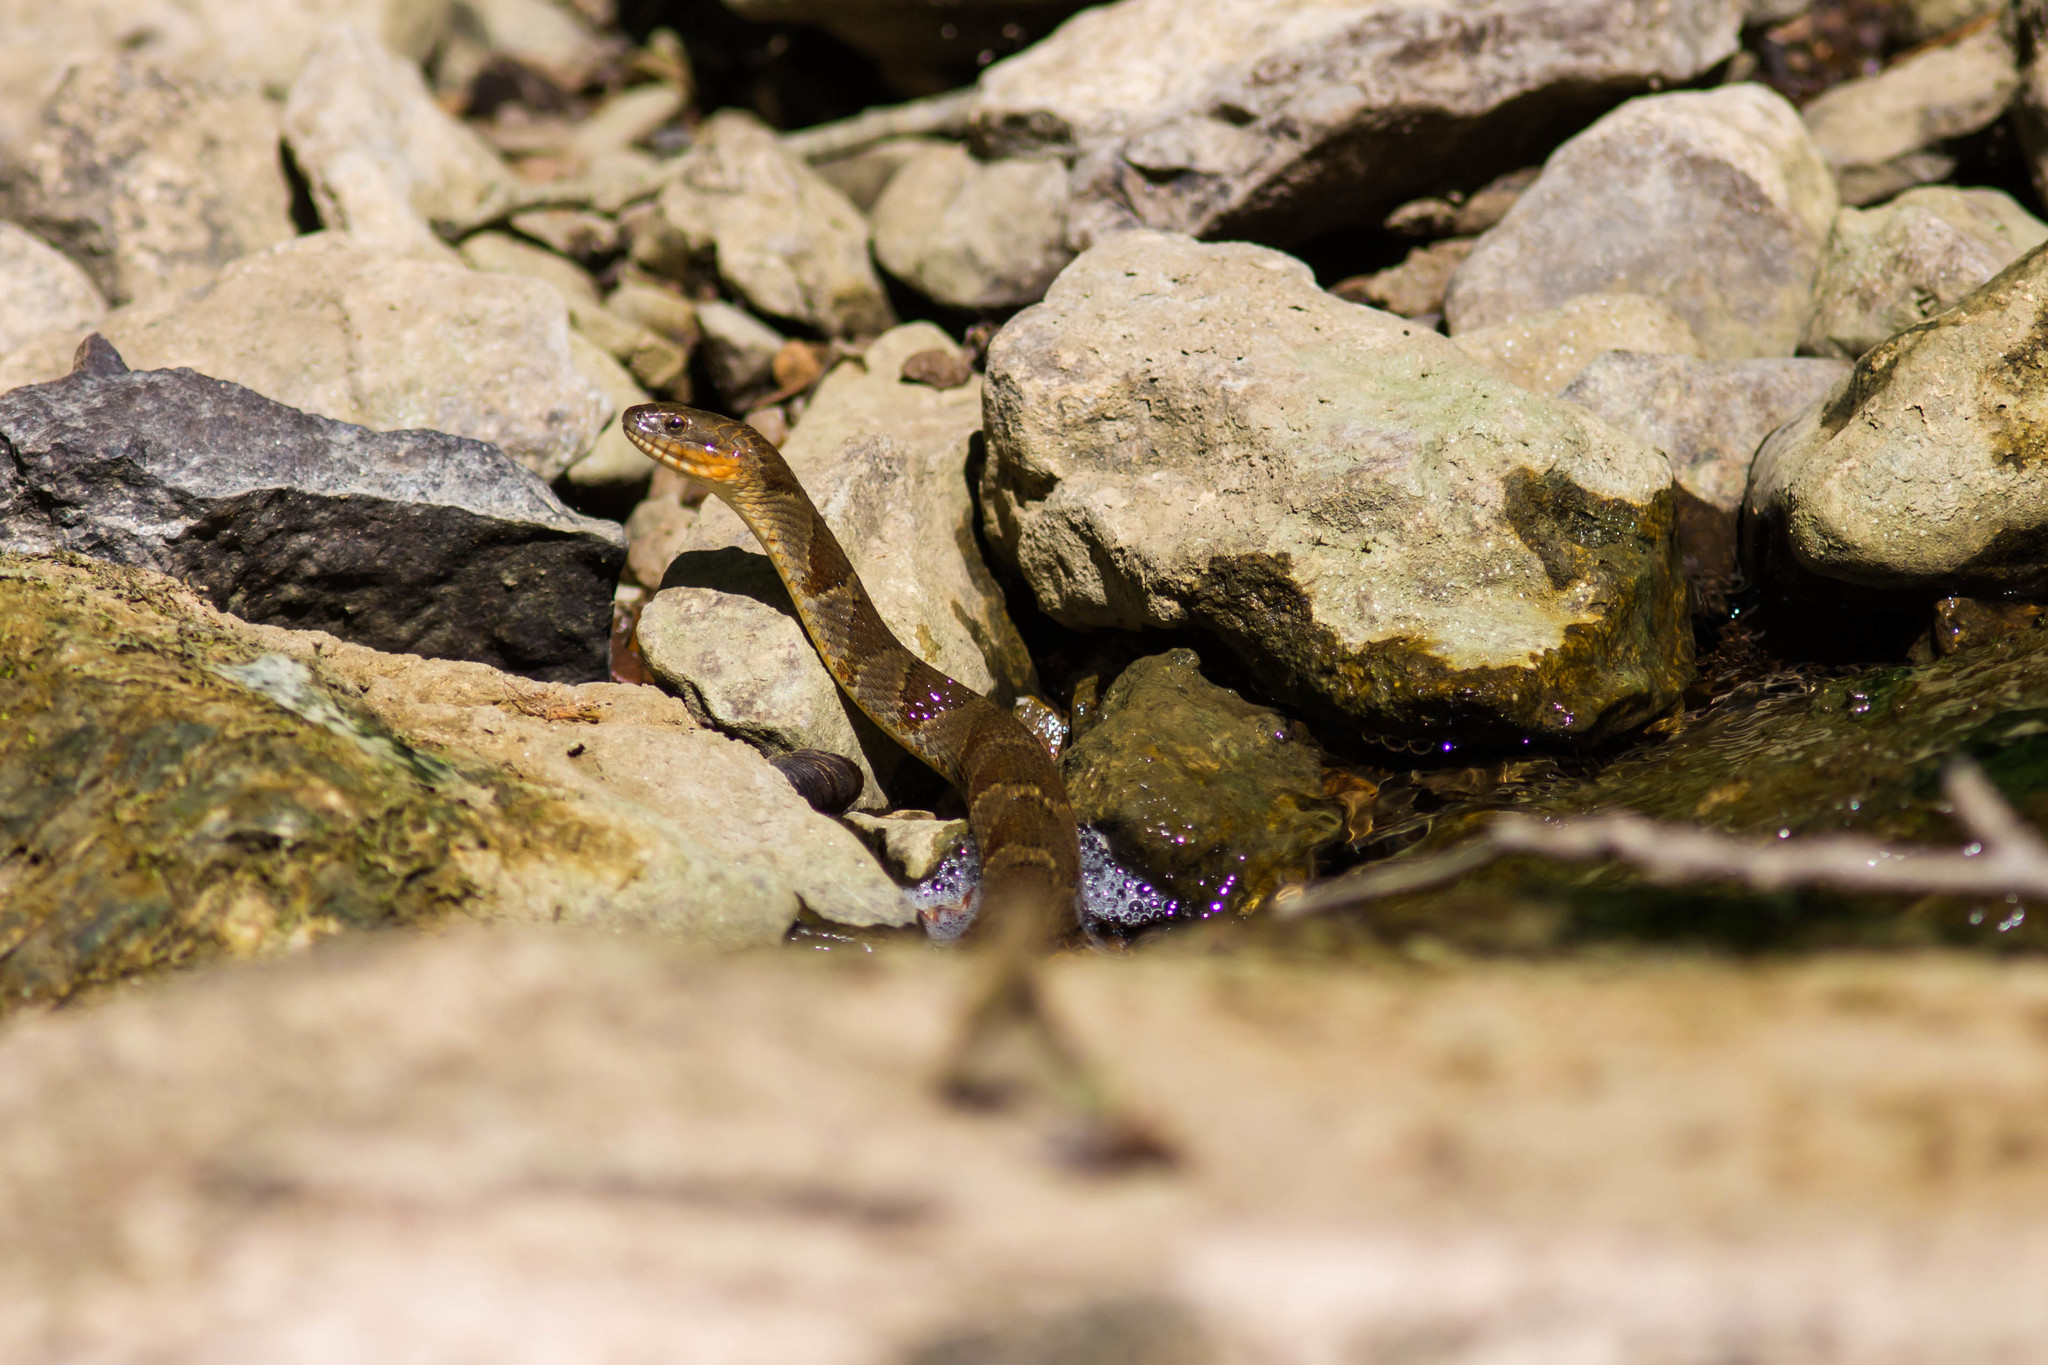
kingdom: Animalia
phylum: Chordata
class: Squamata
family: Colubridae
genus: Nerodia
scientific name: Nerodia sipedon
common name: Northern water snake
